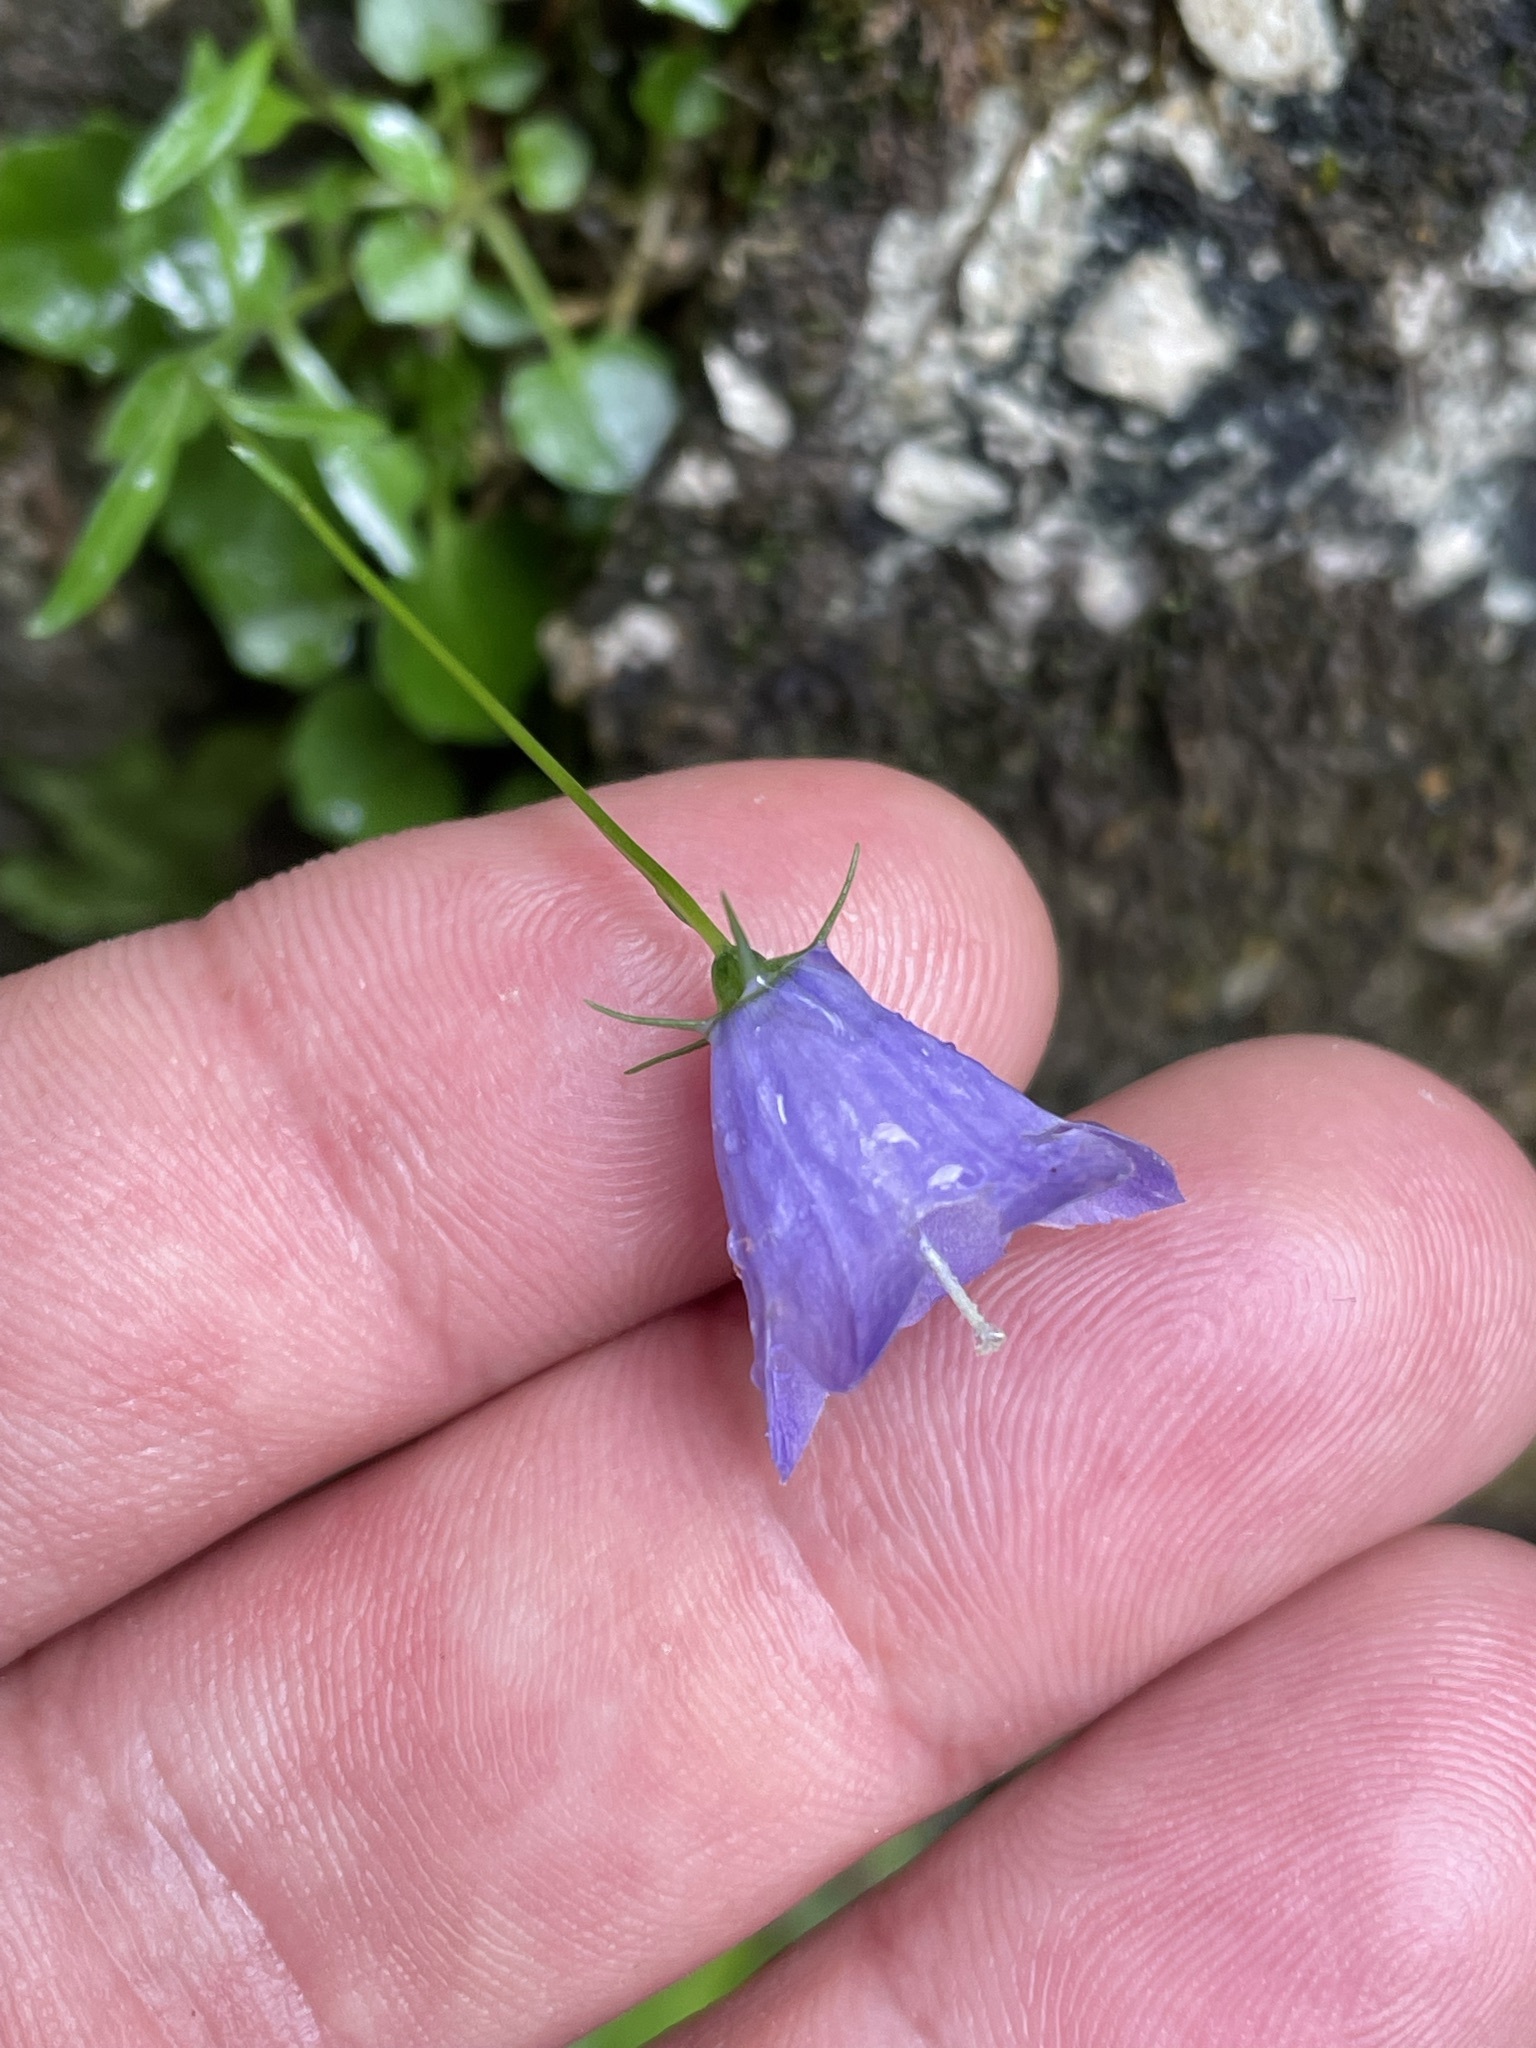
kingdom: Plantae
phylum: Tracheophyta
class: Magnoliopsida
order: Asterales
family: Campanulaceae
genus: Campanula
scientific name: Campanula cochleariifolia
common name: Fairies'-thimbles
